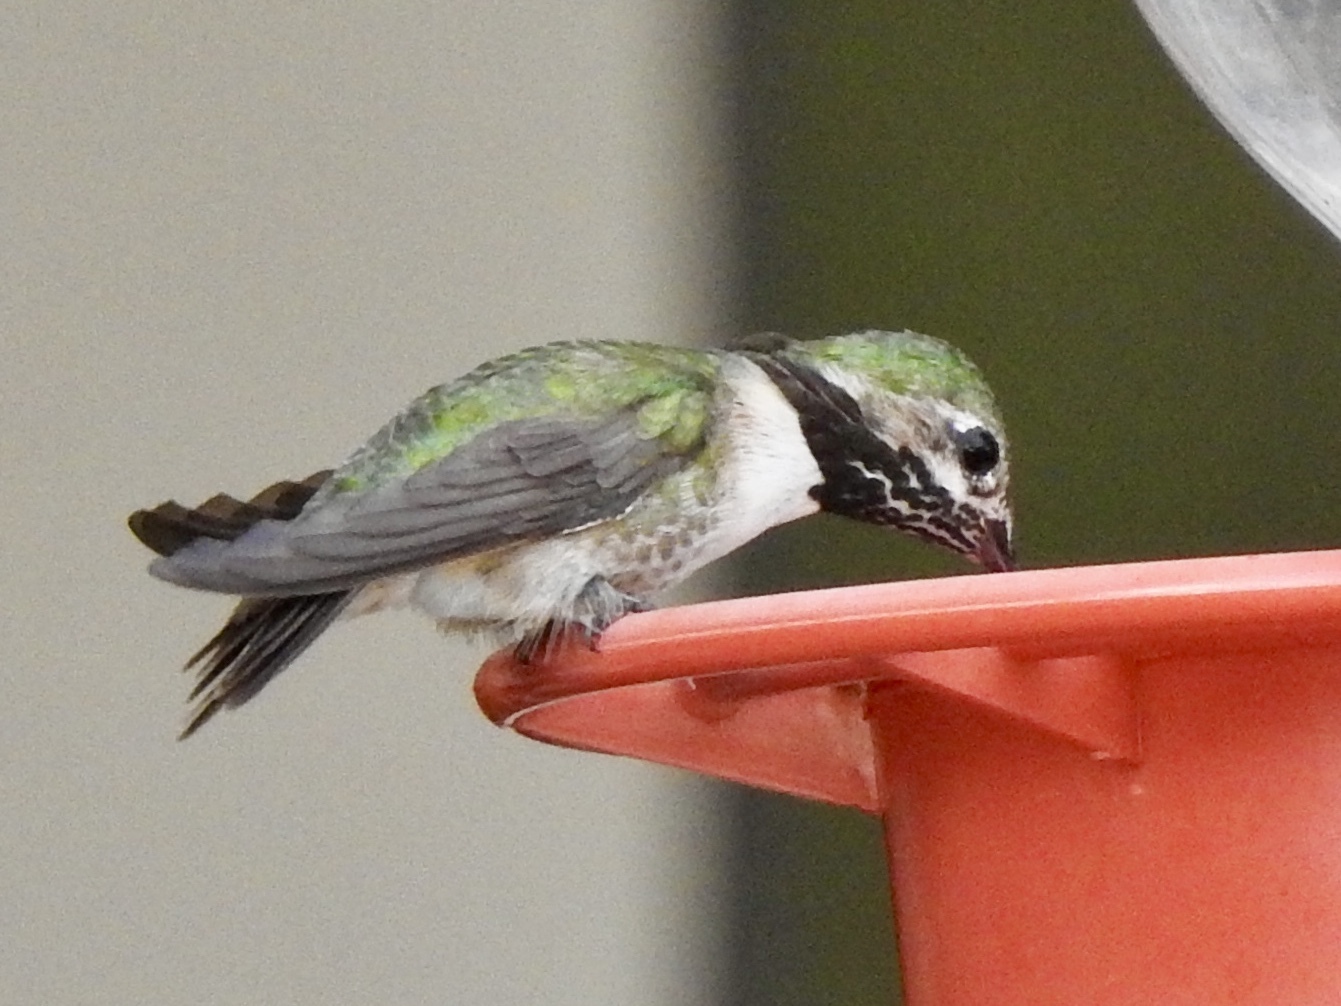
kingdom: Animalia
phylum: Chordata
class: Aves
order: Apodiformes
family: Trochilidae
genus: Selasphorus
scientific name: Selasphorus calliope
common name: Calliope hummingbird
